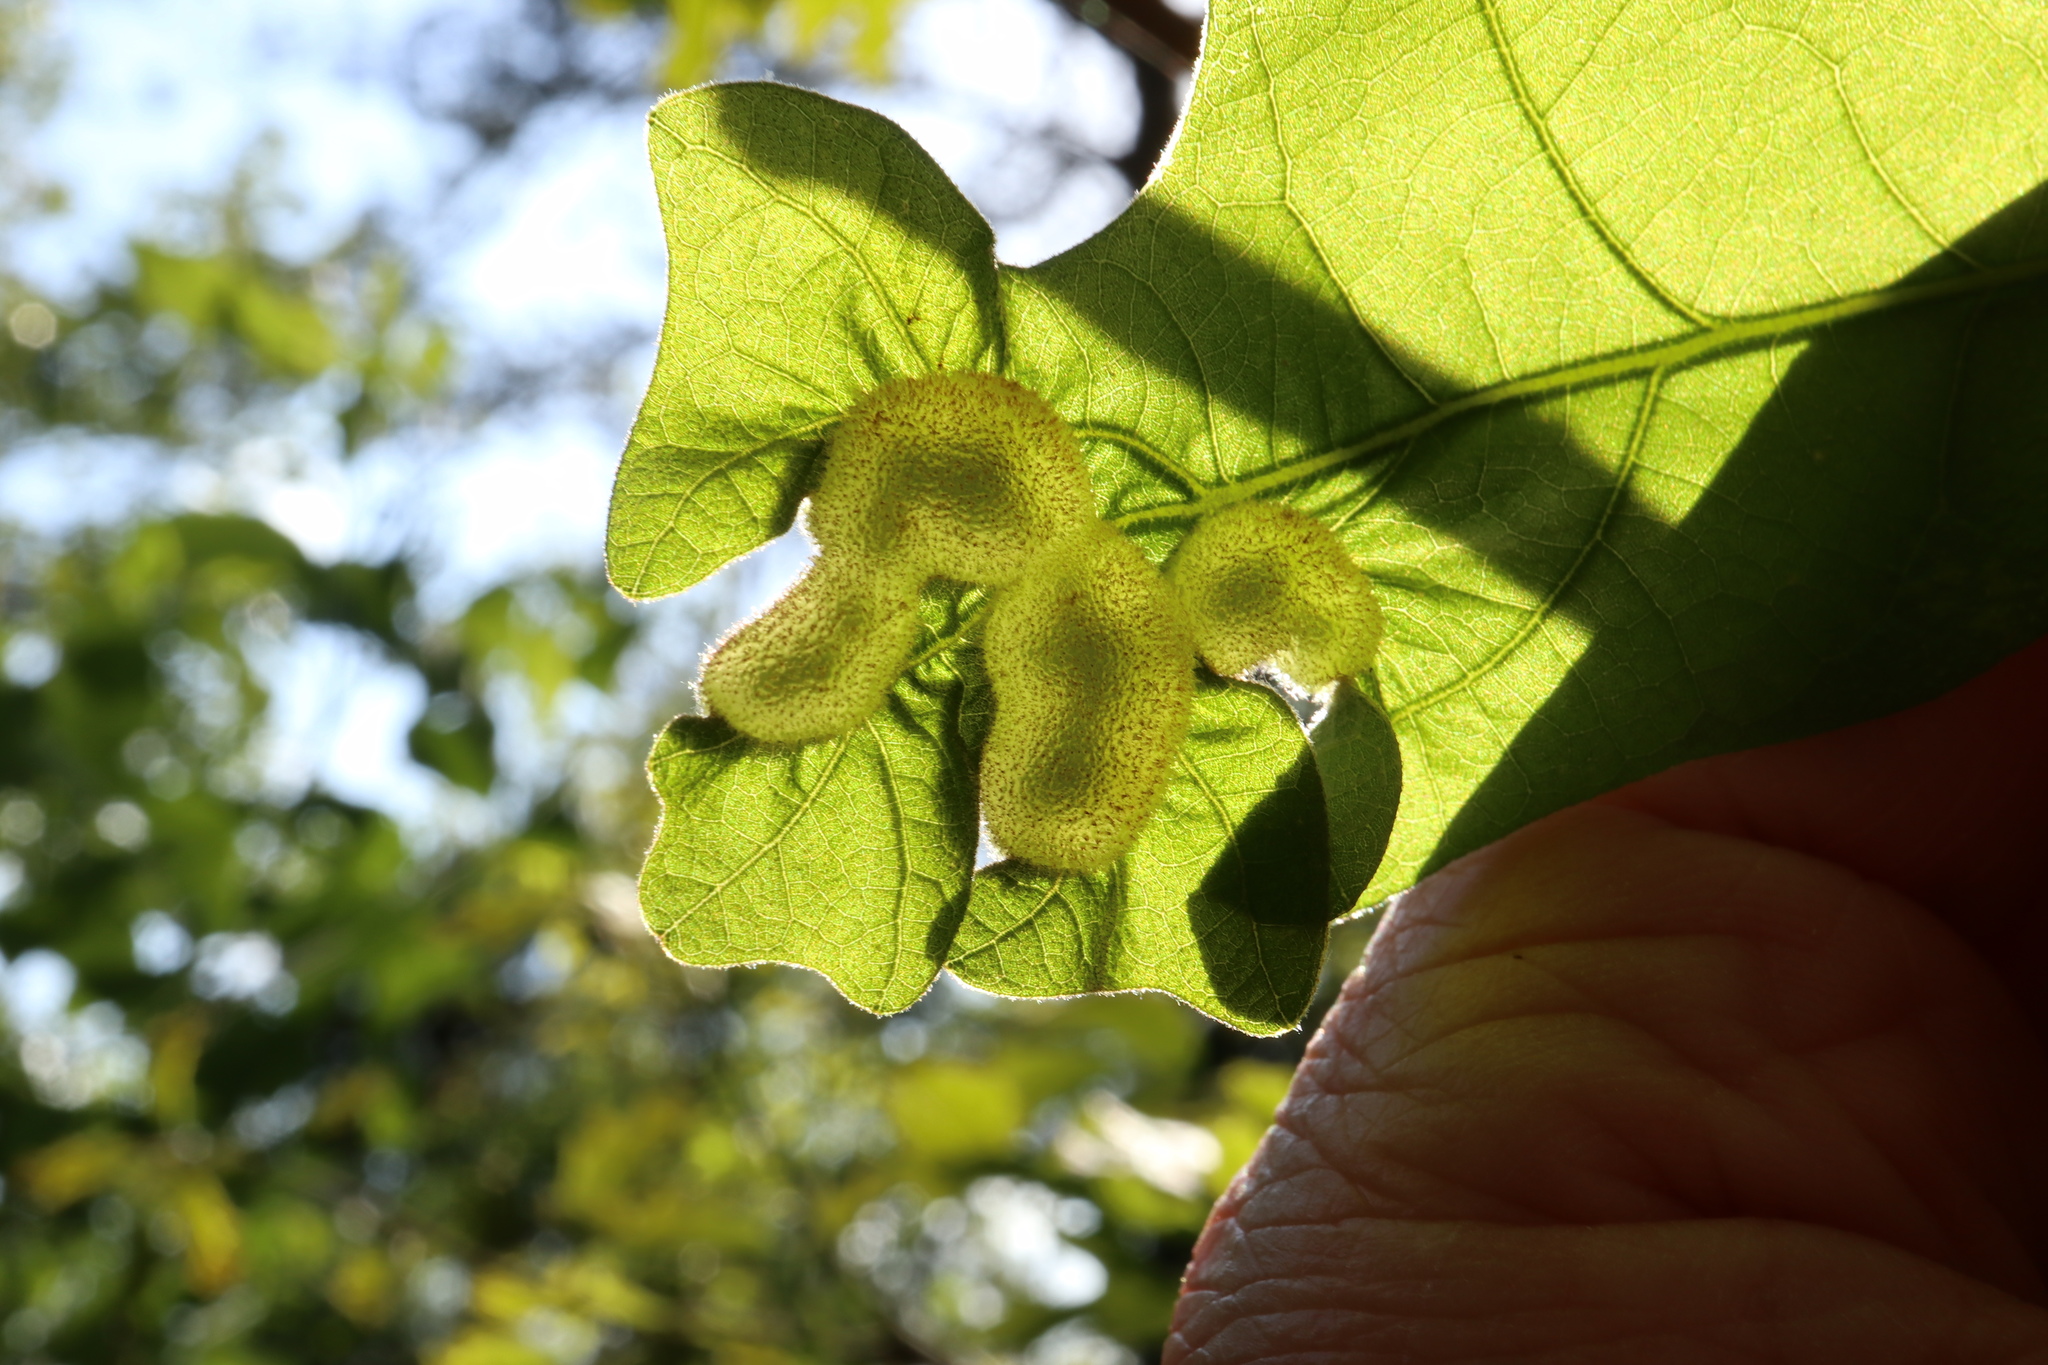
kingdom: Animalia
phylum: Arthropoda
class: Insecta
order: Hymenoptera
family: Cynipidae
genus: Neuroterus
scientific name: Neuroterus quercusirregularis
